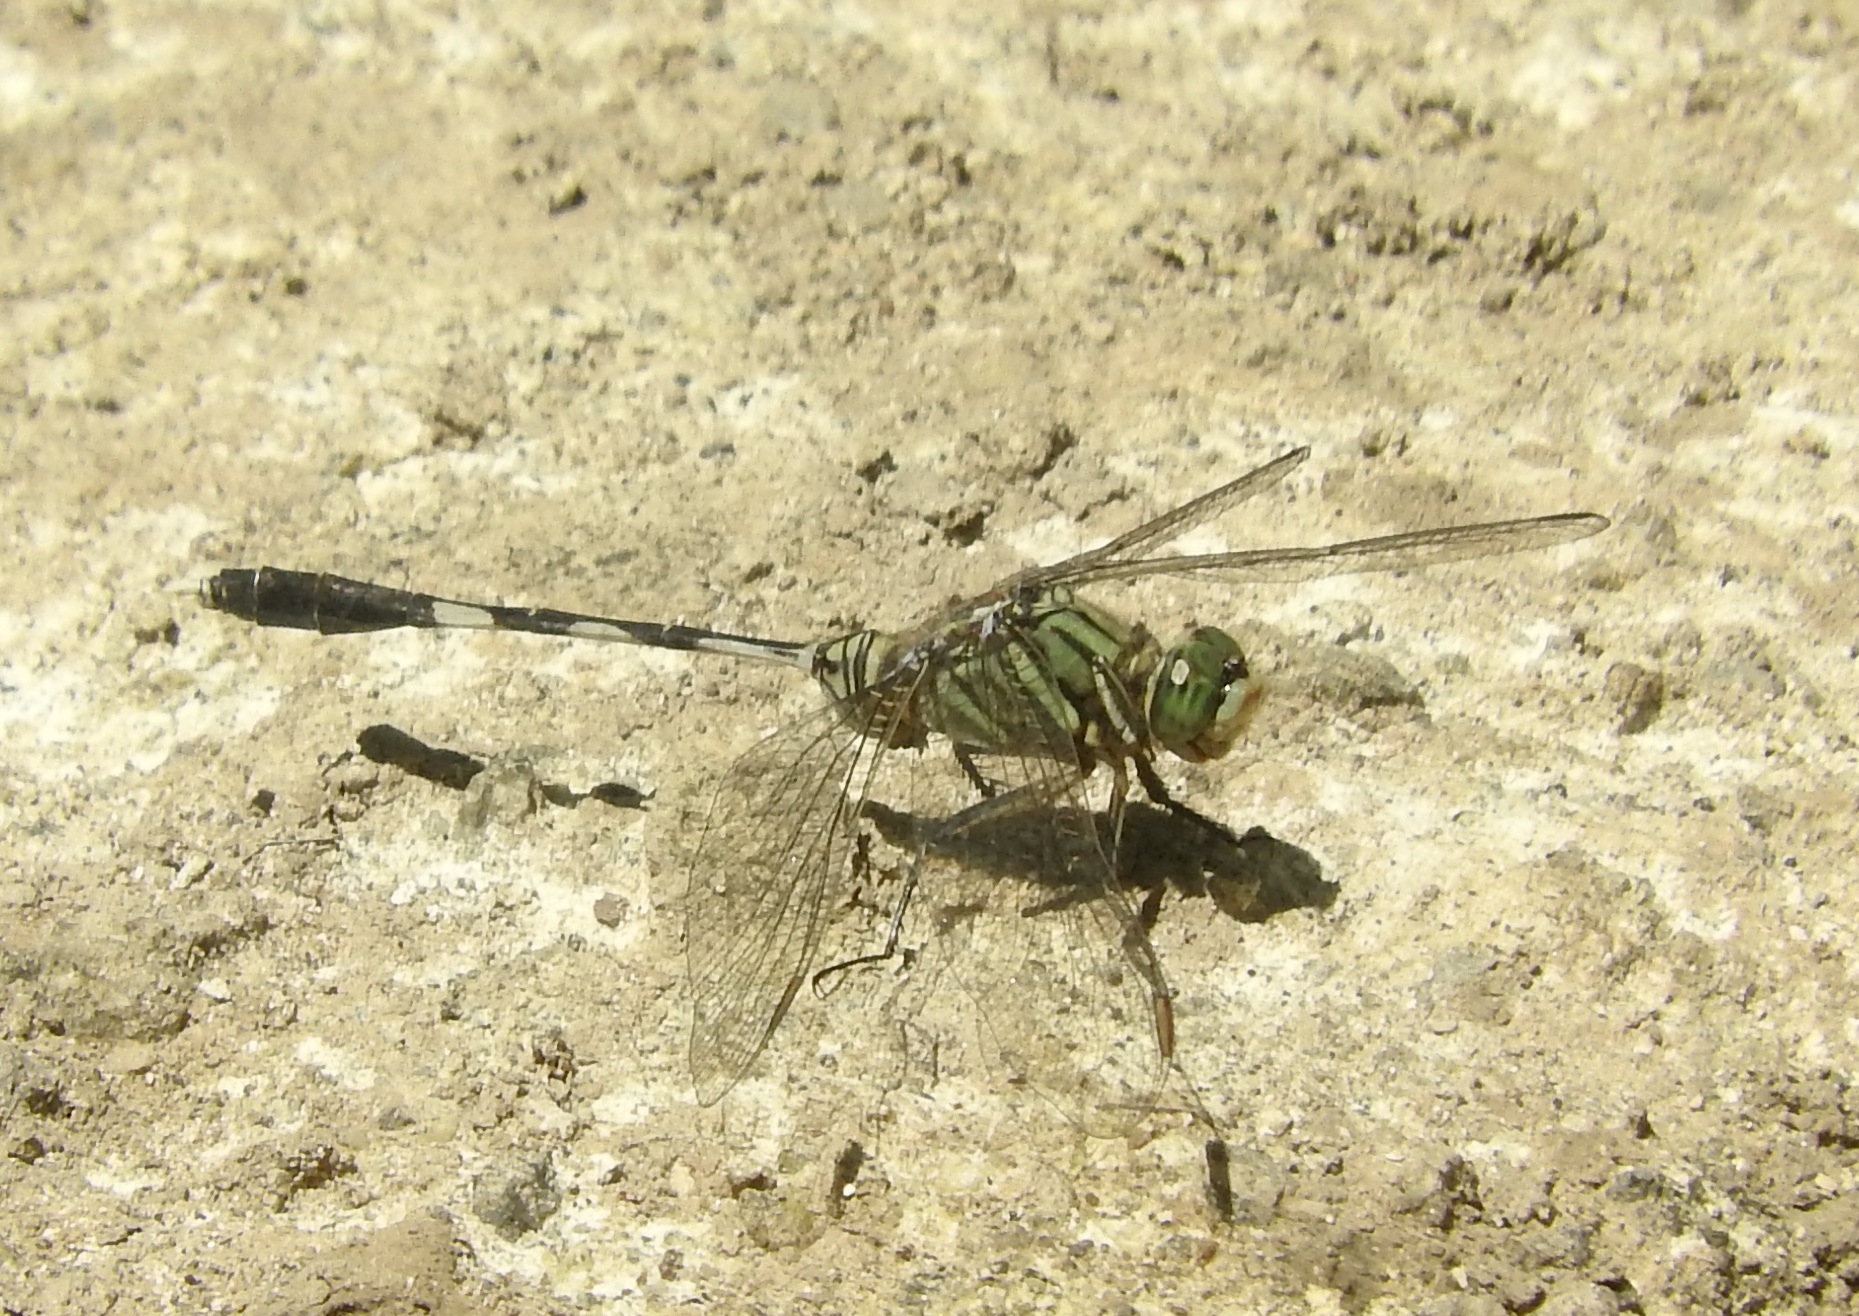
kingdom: Animalia
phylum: Arthropoda
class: Insecta
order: Odonata
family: Libellulidae
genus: Orthetrum
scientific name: Orthetrum sabina
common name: Slender skimmer
